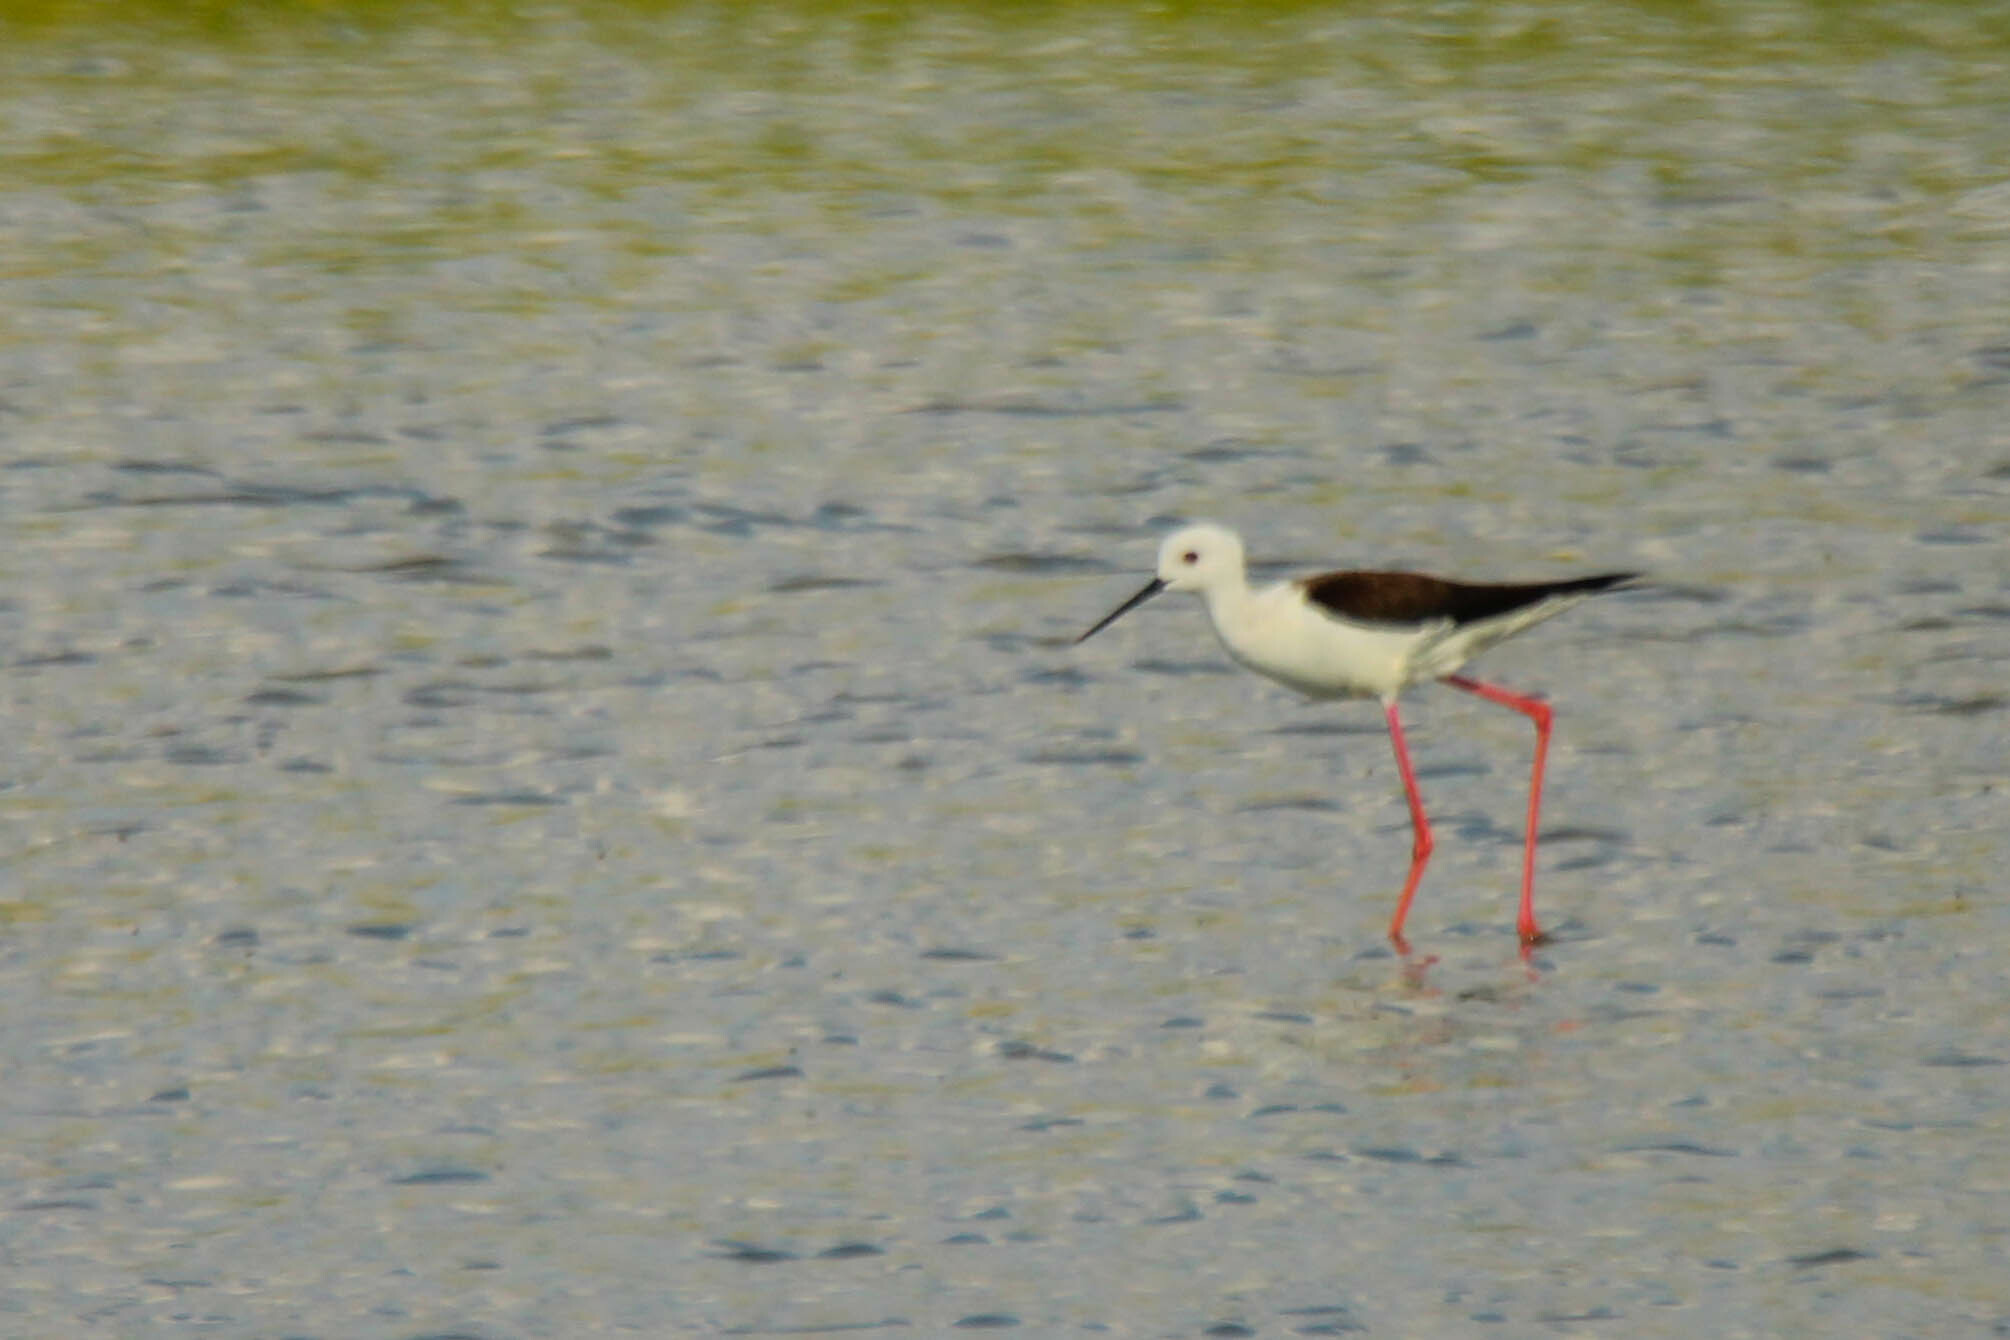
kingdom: Animalia
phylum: Chordata
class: Aves
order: Charadriiformes
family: Recurvirostridae
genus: Himantopus
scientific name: Himantopus himantopus
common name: Black-winged stilt
